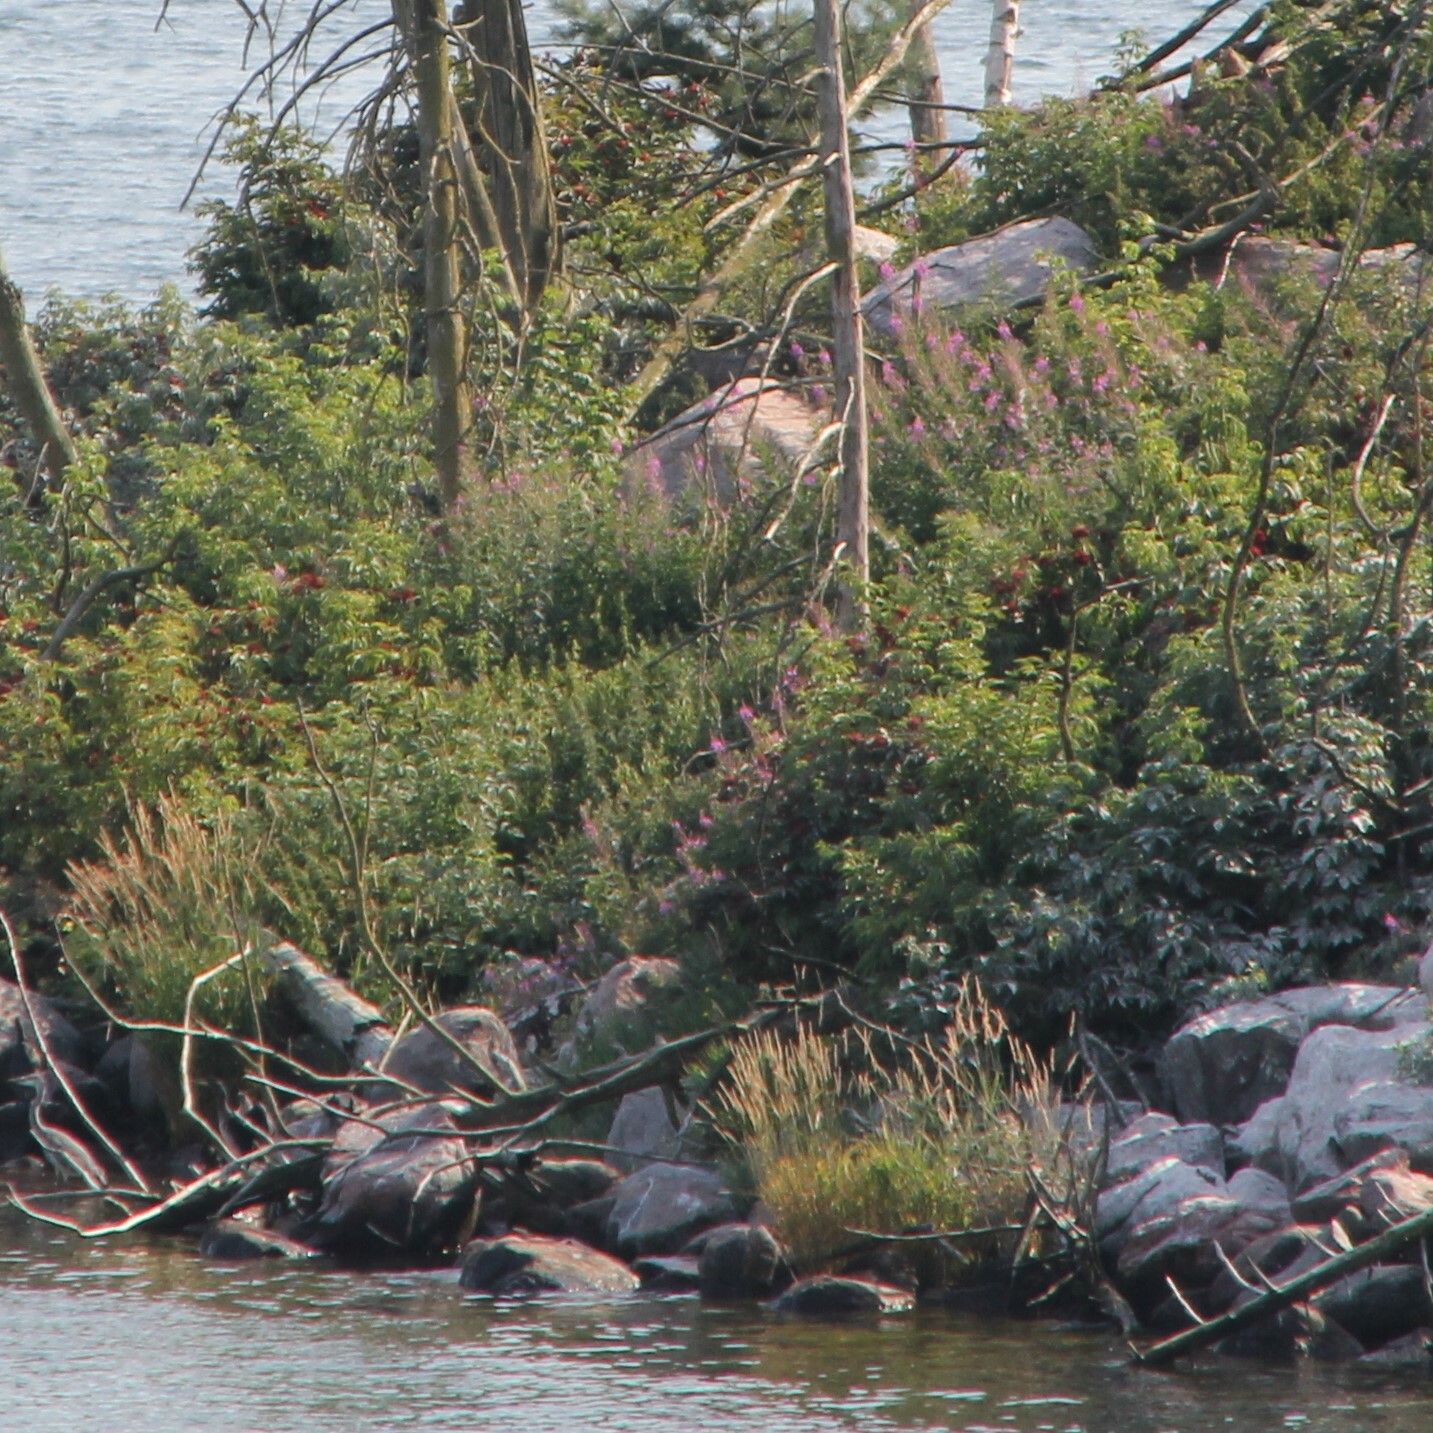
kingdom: Plantae
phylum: Tracheophyta
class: Magnoliopsida
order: Myrtales
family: Onagraceae
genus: Chamaenerion
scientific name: Chamaenerion angustifolium
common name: Fireweed
